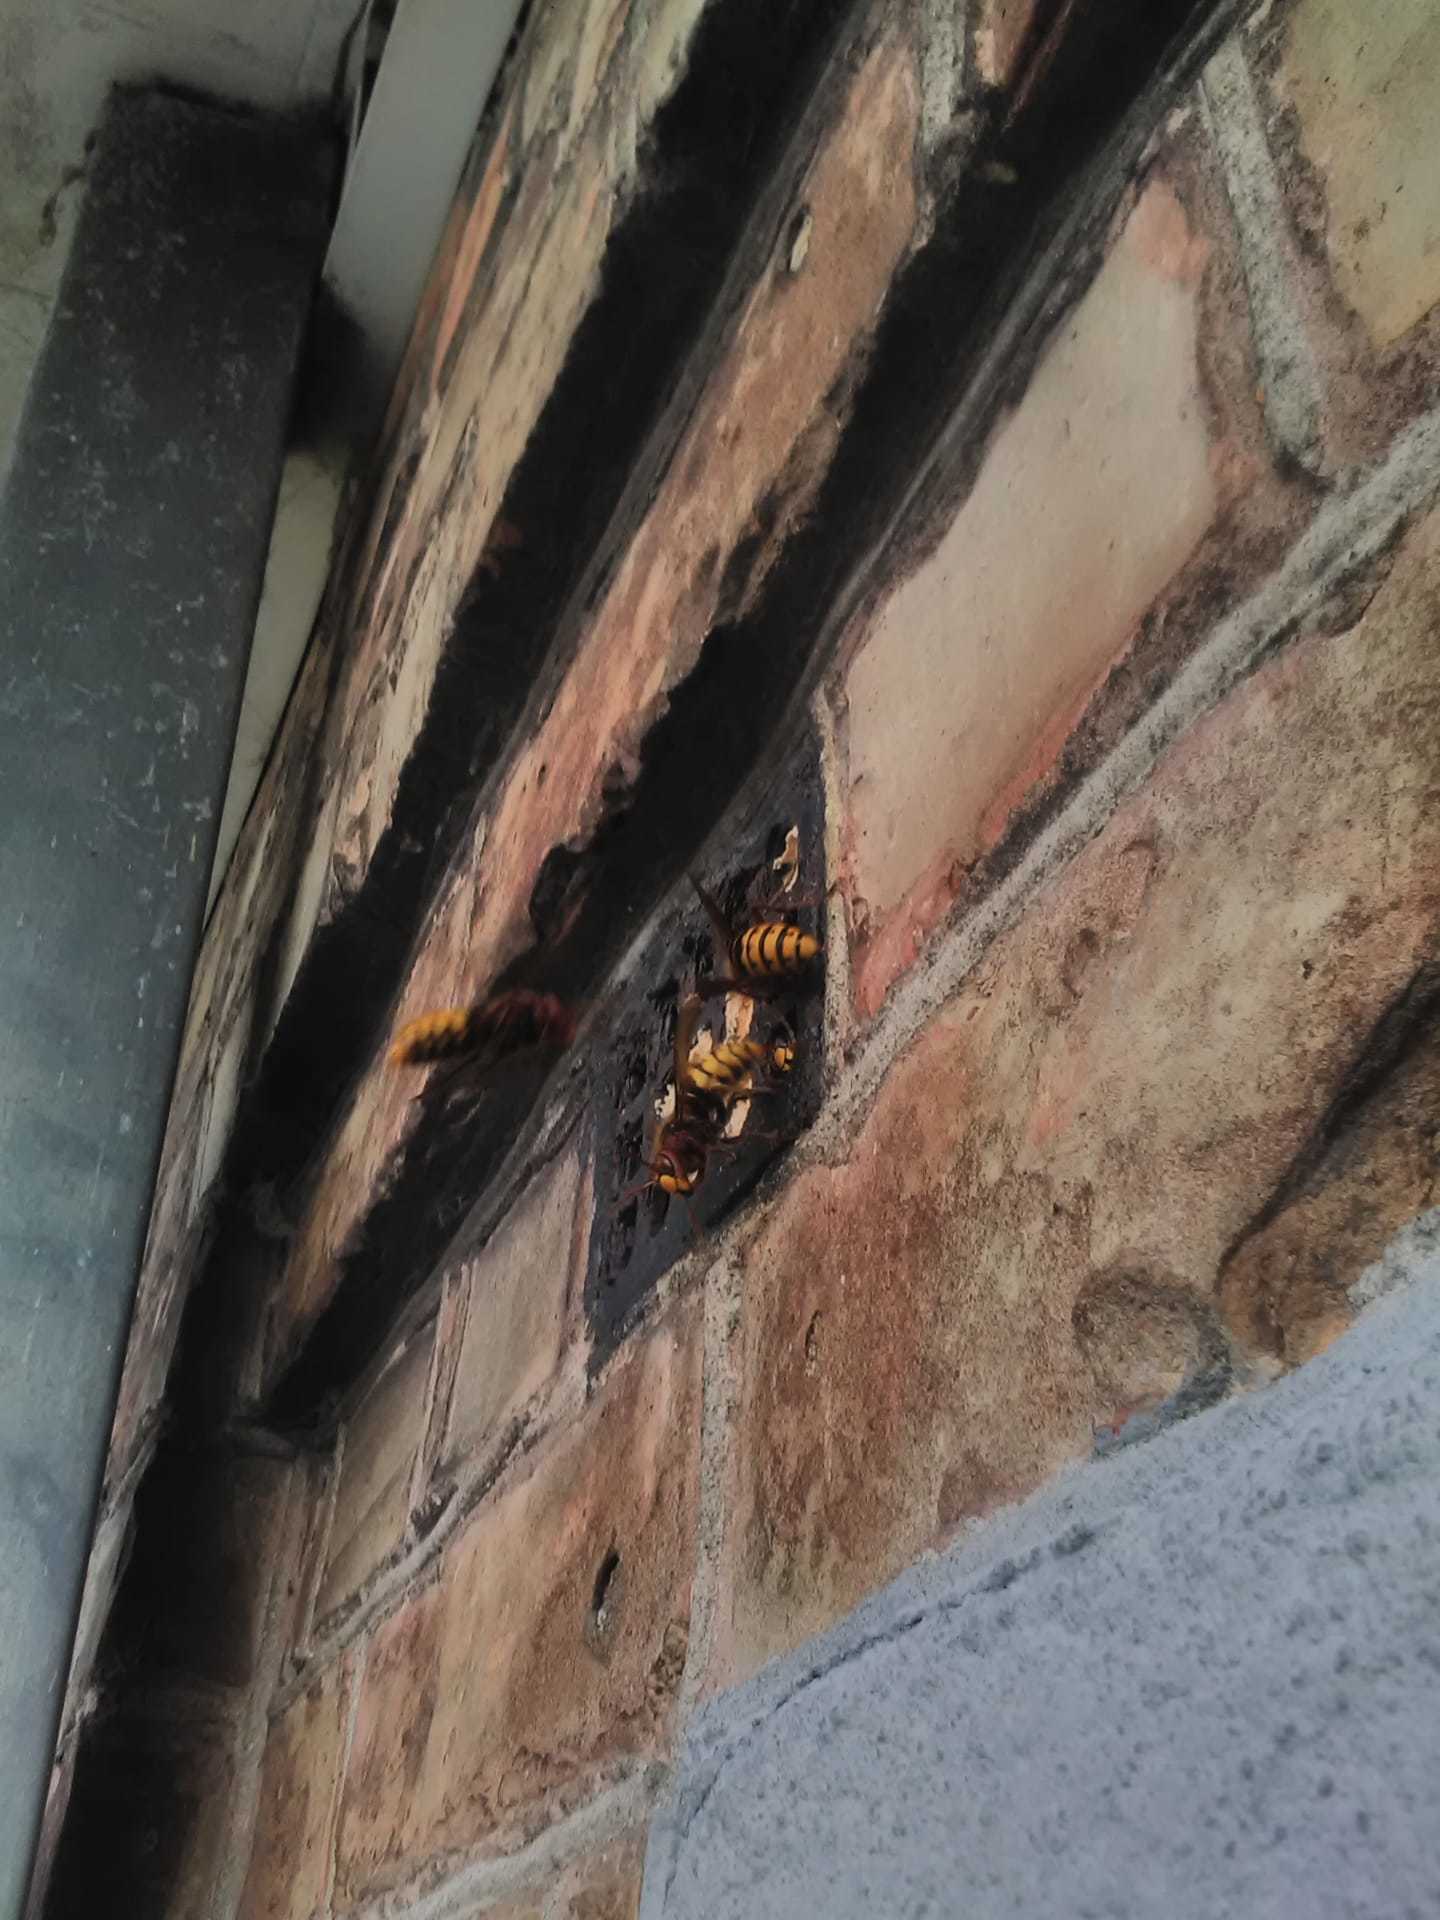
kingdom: Animalia
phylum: Arthropoda
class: Insecta
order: Hymenoptera
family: Vespidae
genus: Vespa
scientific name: Vespa crabro
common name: Hornet
